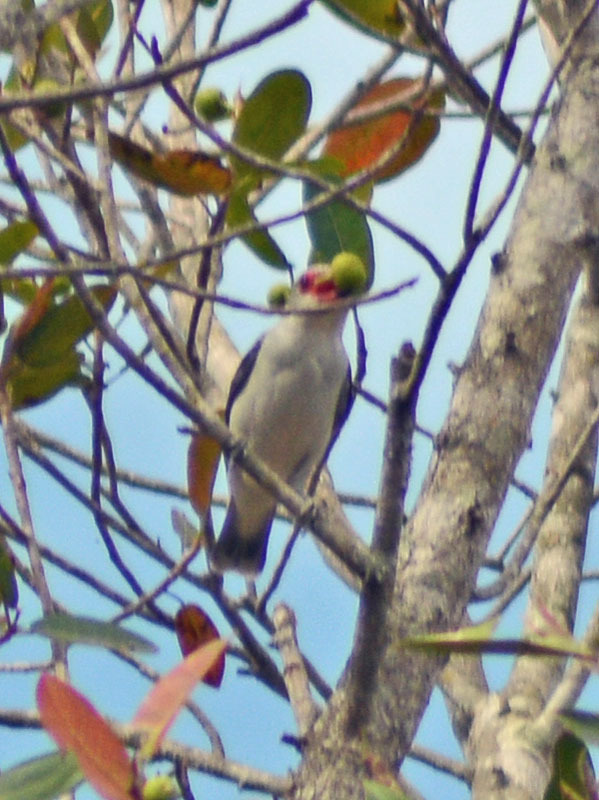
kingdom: Animalia
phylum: Chordata
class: Aves
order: Passeriformes
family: Cotingidae
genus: Tityra
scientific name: Tityra semifasciata
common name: Masked tityra
